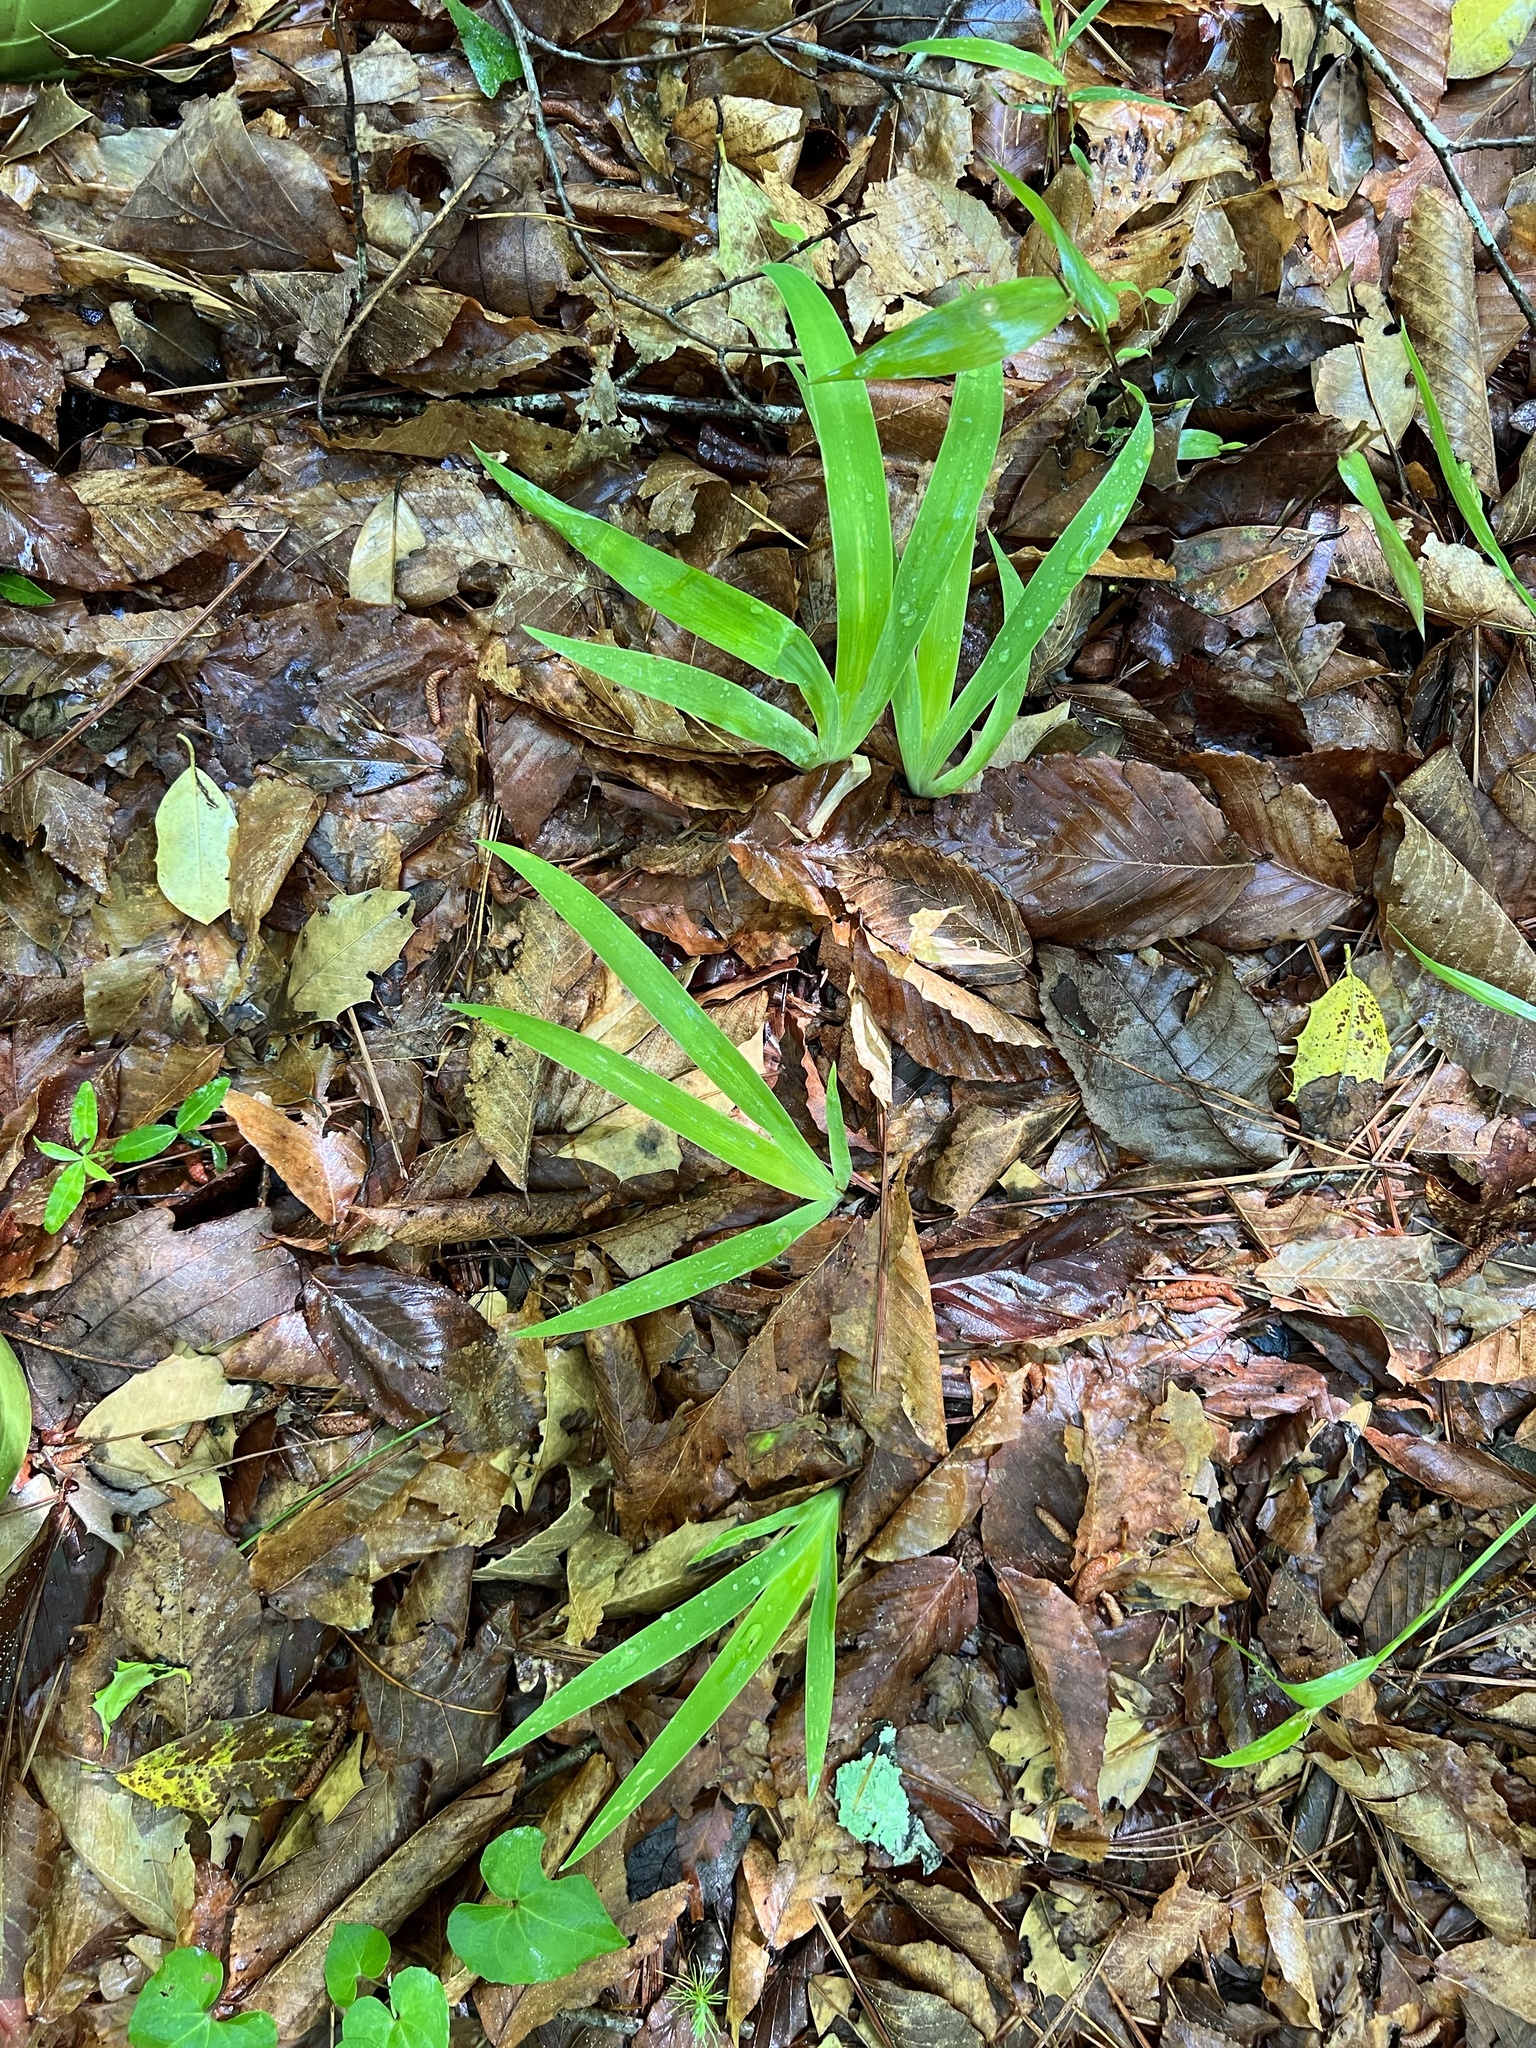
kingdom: Plantae
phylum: Tracheophyta
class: Liliopsida
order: Asparagales
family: Iridaceae
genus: Iris
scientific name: Iris cristata
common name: Crested iris
